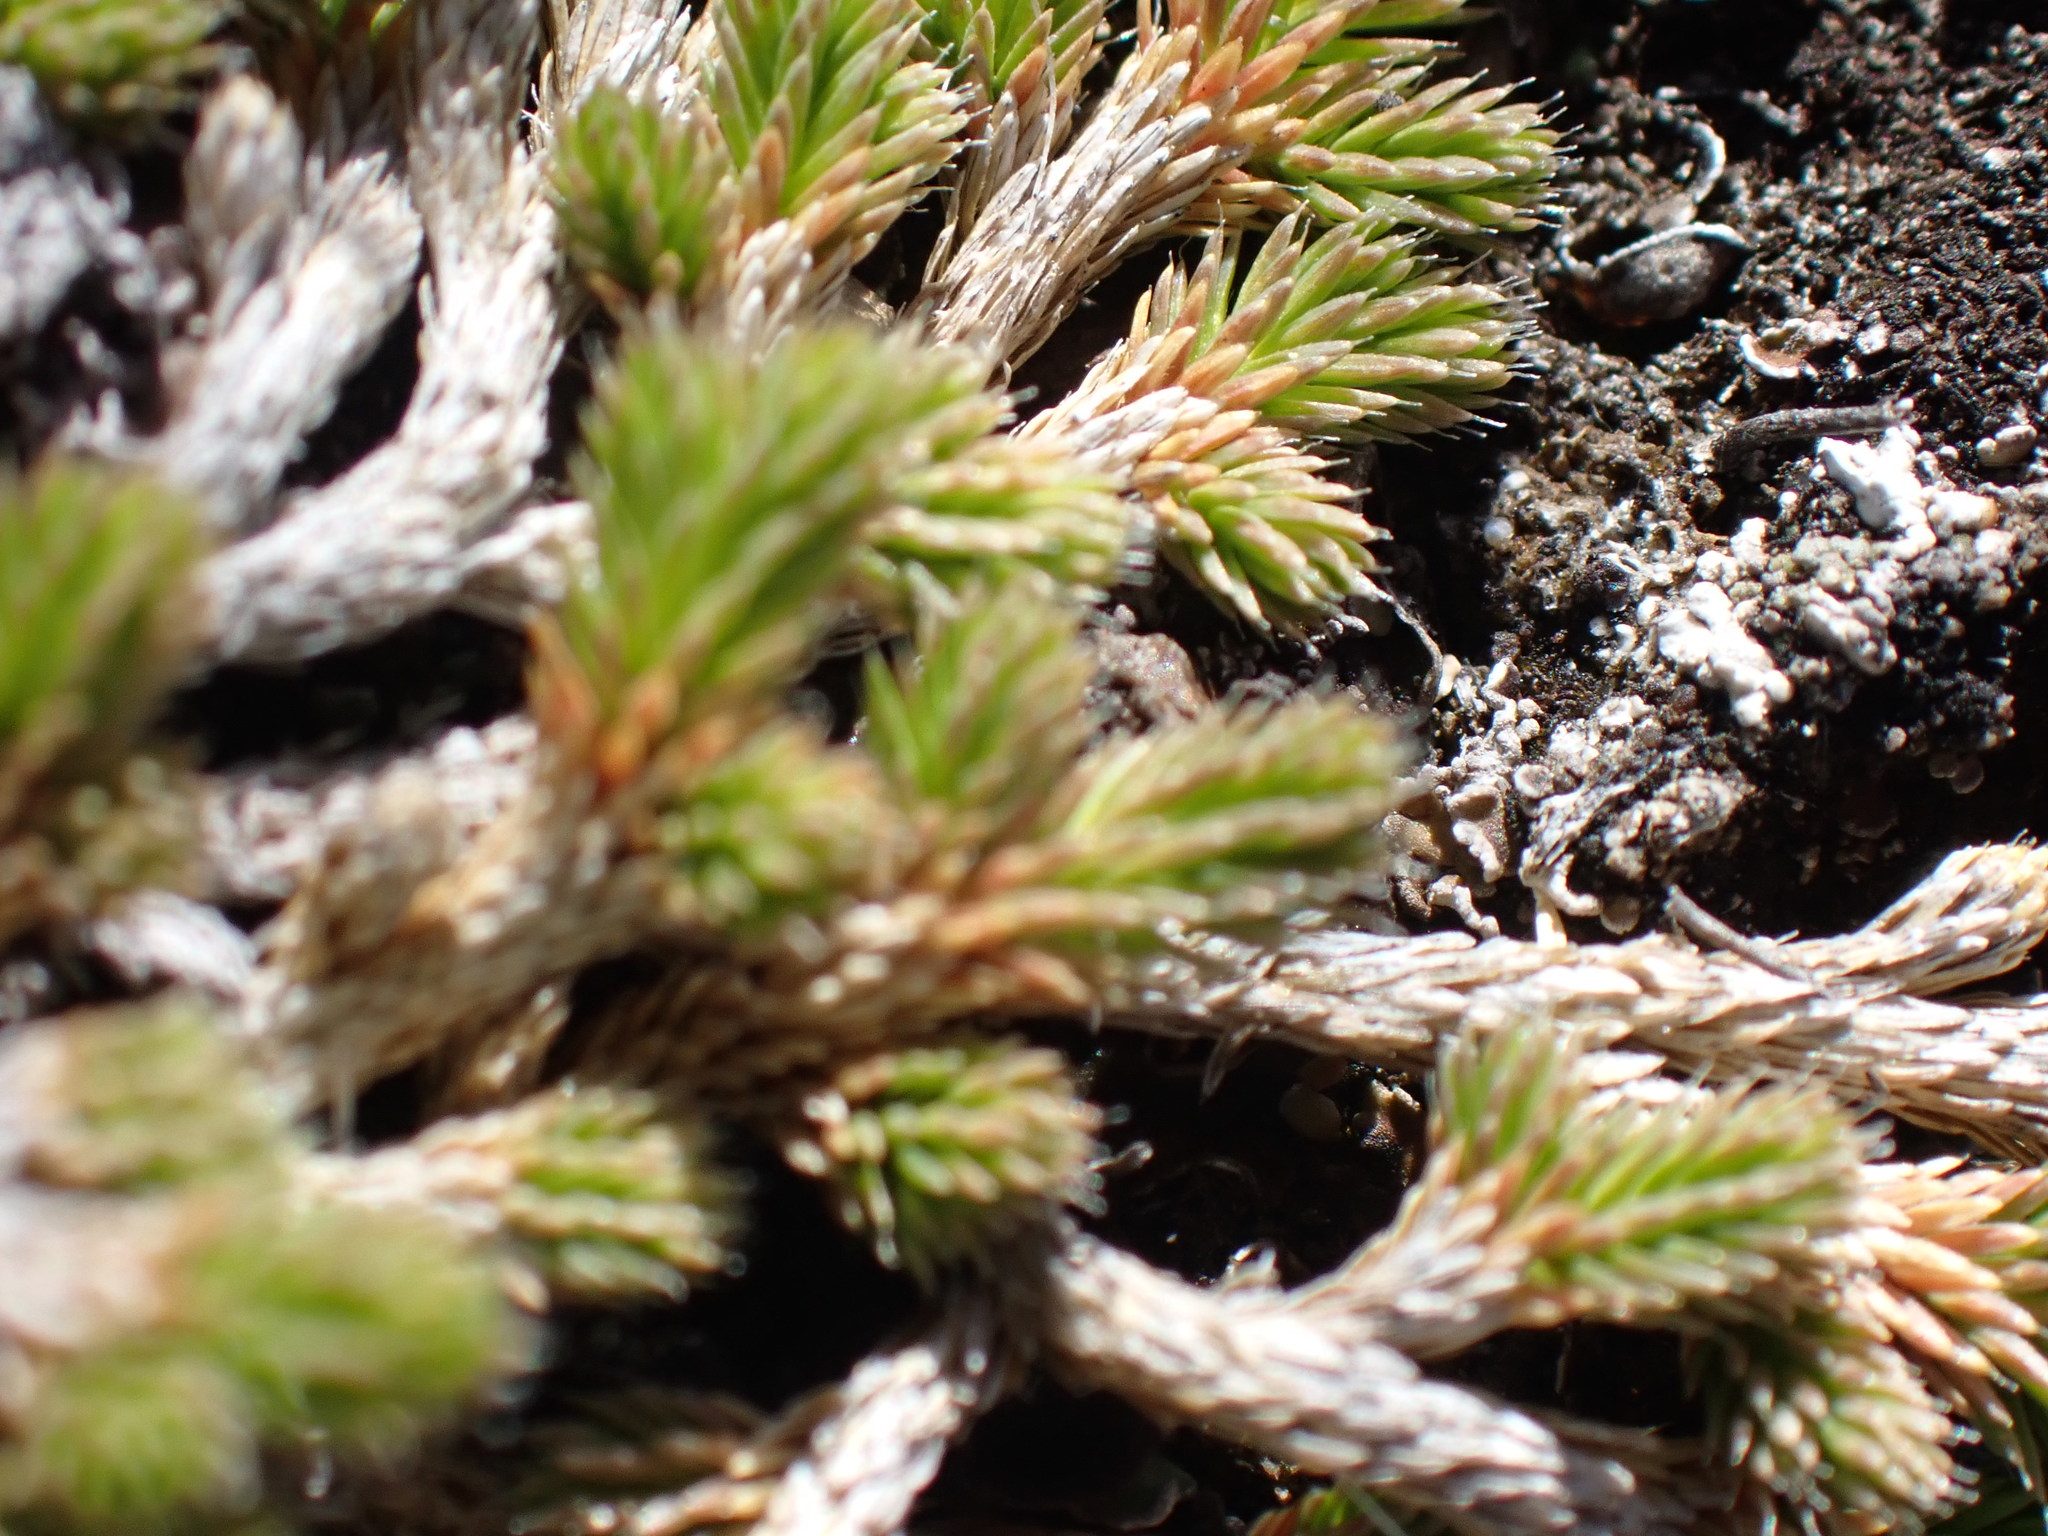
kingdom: Plantae
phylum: Tracheophyta
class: Lycopodiopsida
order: Selaginellales
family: Selaginellaceae
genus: Selaginella
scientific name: Selaginella wallacei
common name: Wallace's selaginella
